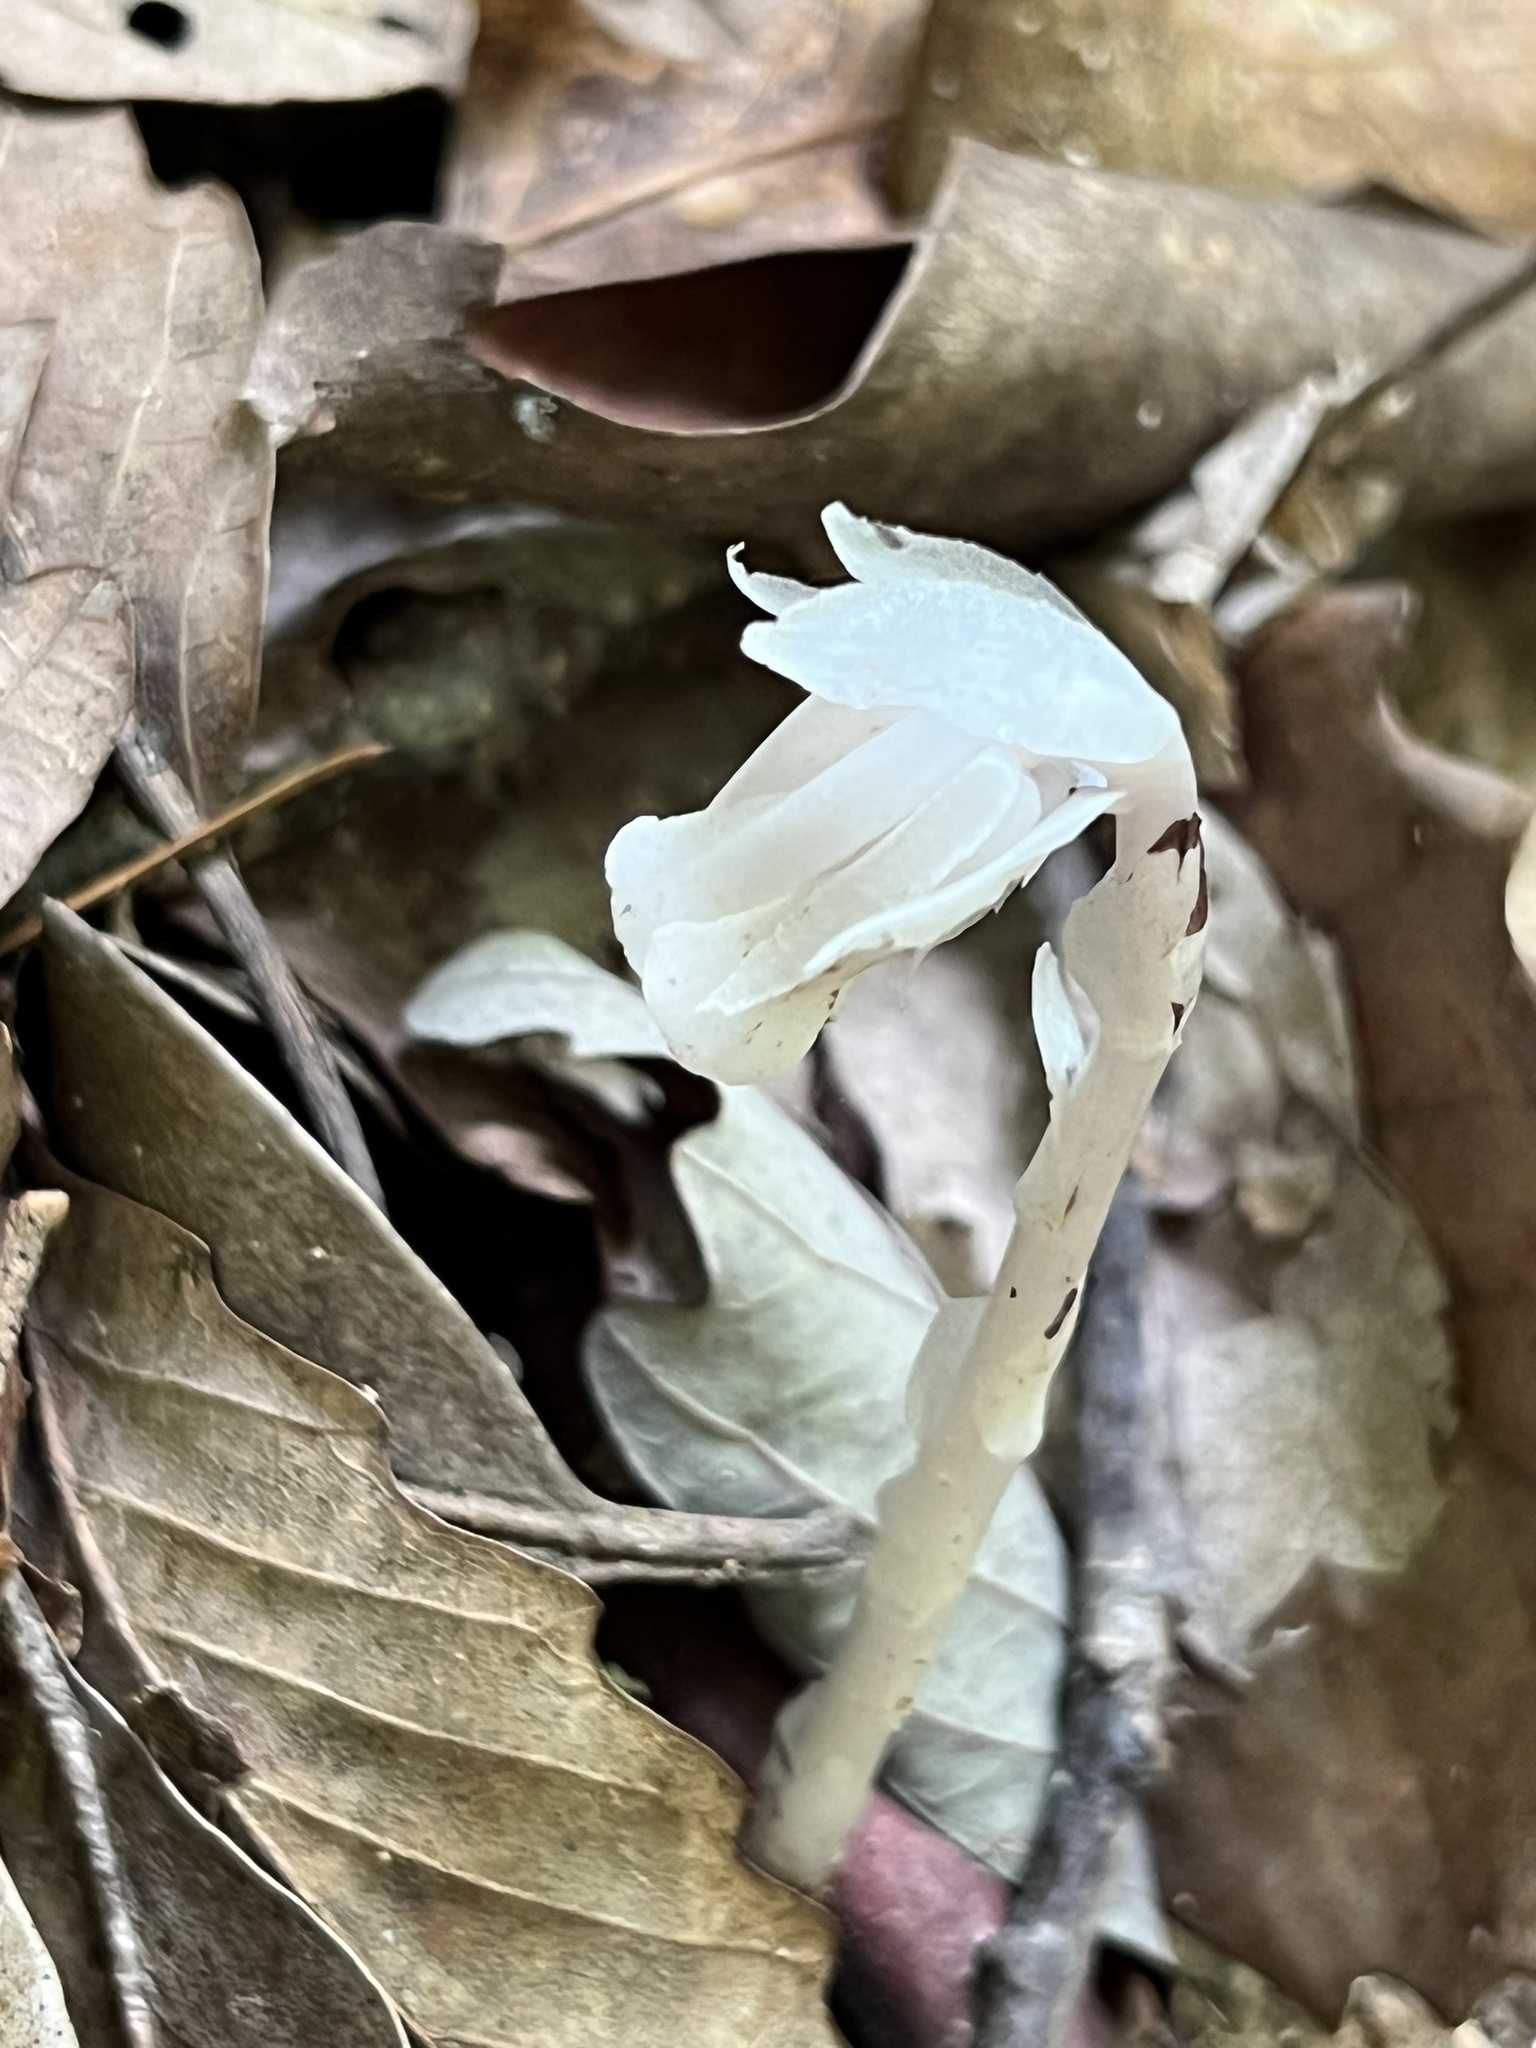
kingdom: Plantae
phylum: Tracheophyta
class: Magnoliopsida
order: Ericales
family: Ericaceae
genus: Monotropa
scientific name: Monotropa uniflora
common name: Convulsion root
